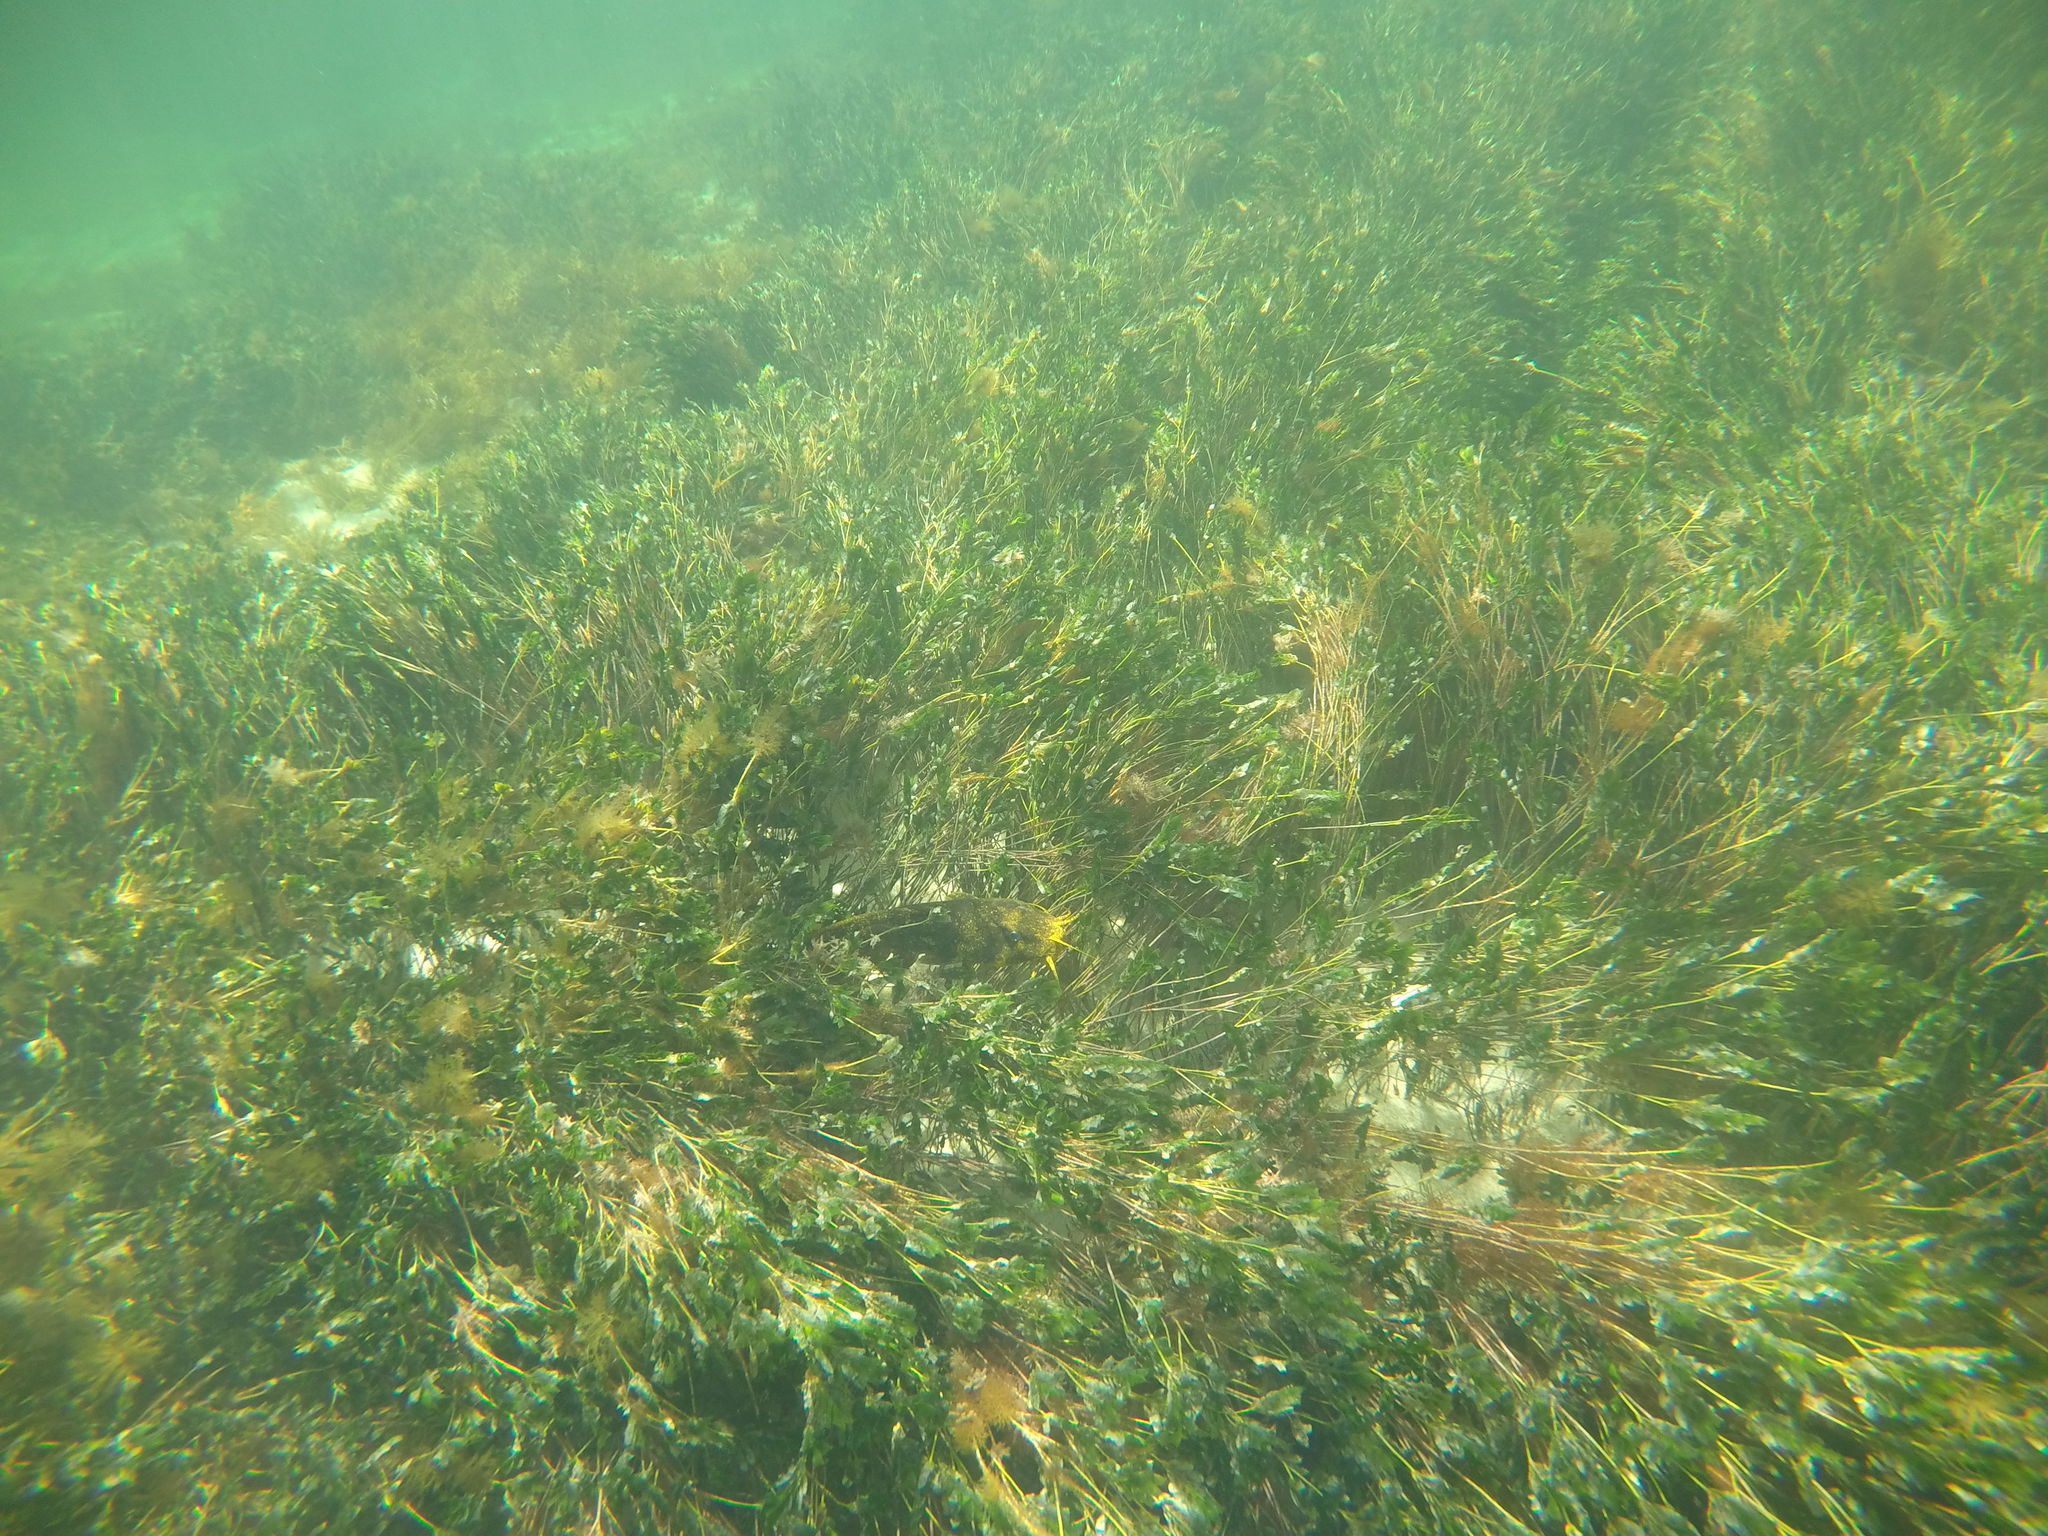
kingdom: Animalia
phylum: Chordata
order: Siluriformes
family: Plotosidae
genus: Cnidoglanis
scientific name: Cnidoglanis macrocephalus
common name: Cobbler
